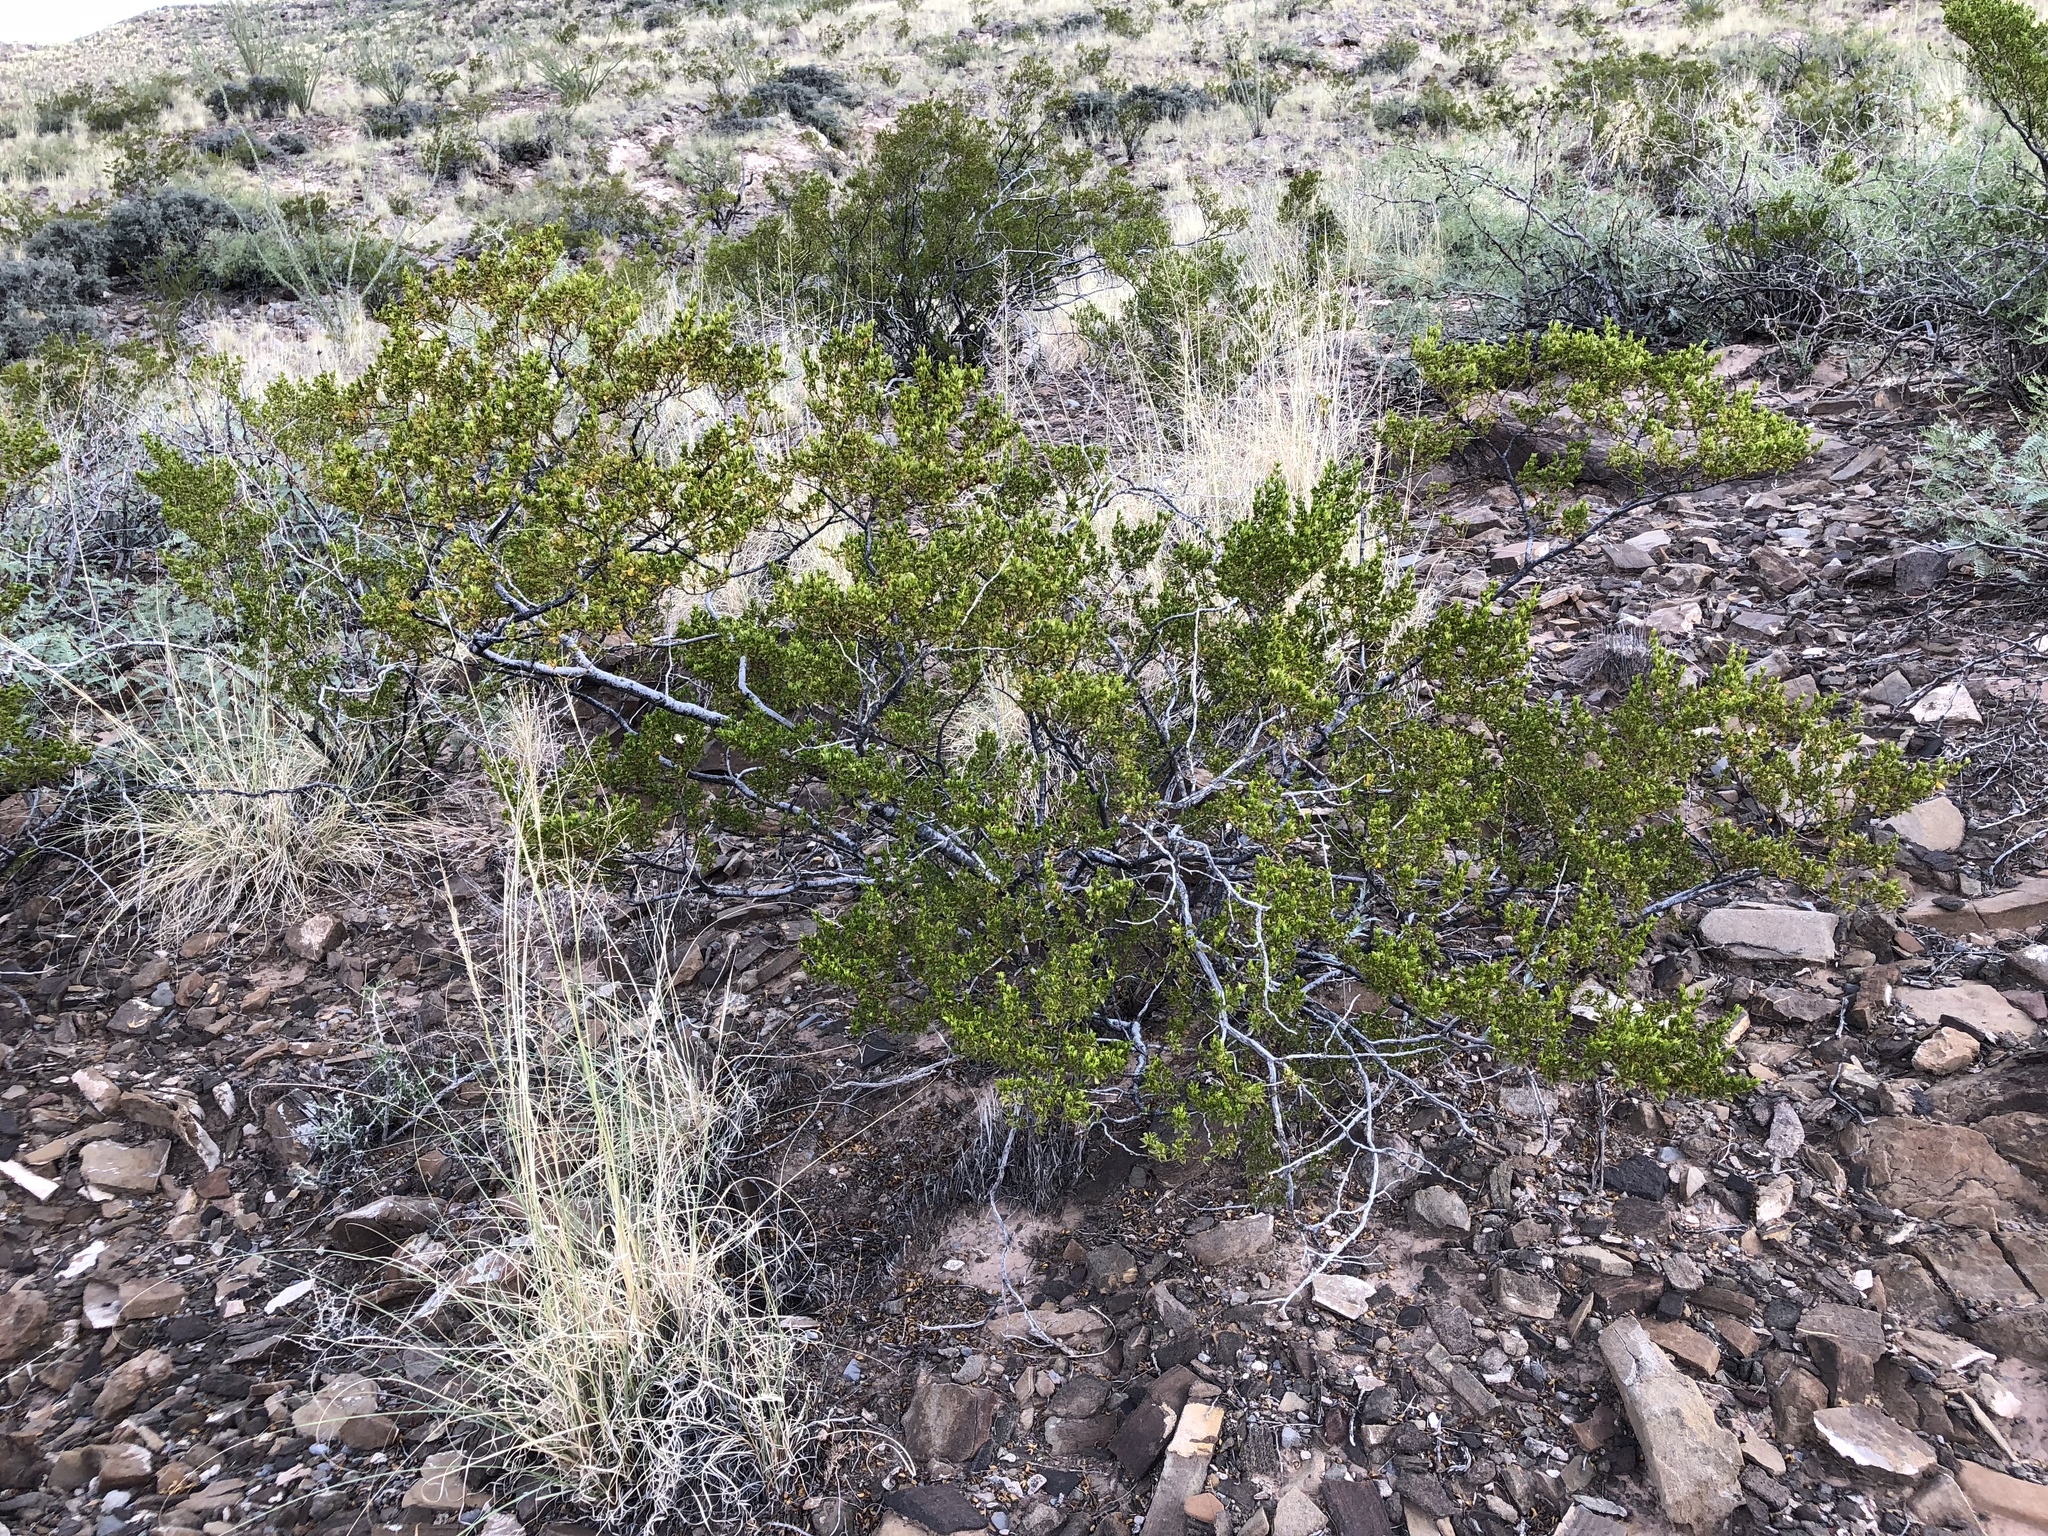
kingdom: Plantae
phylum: Tracheophyta
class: Magnoliopsida
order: Zygophyllales
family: Zygophyllaceae
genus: Larrea
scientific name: Larrea tridentata
